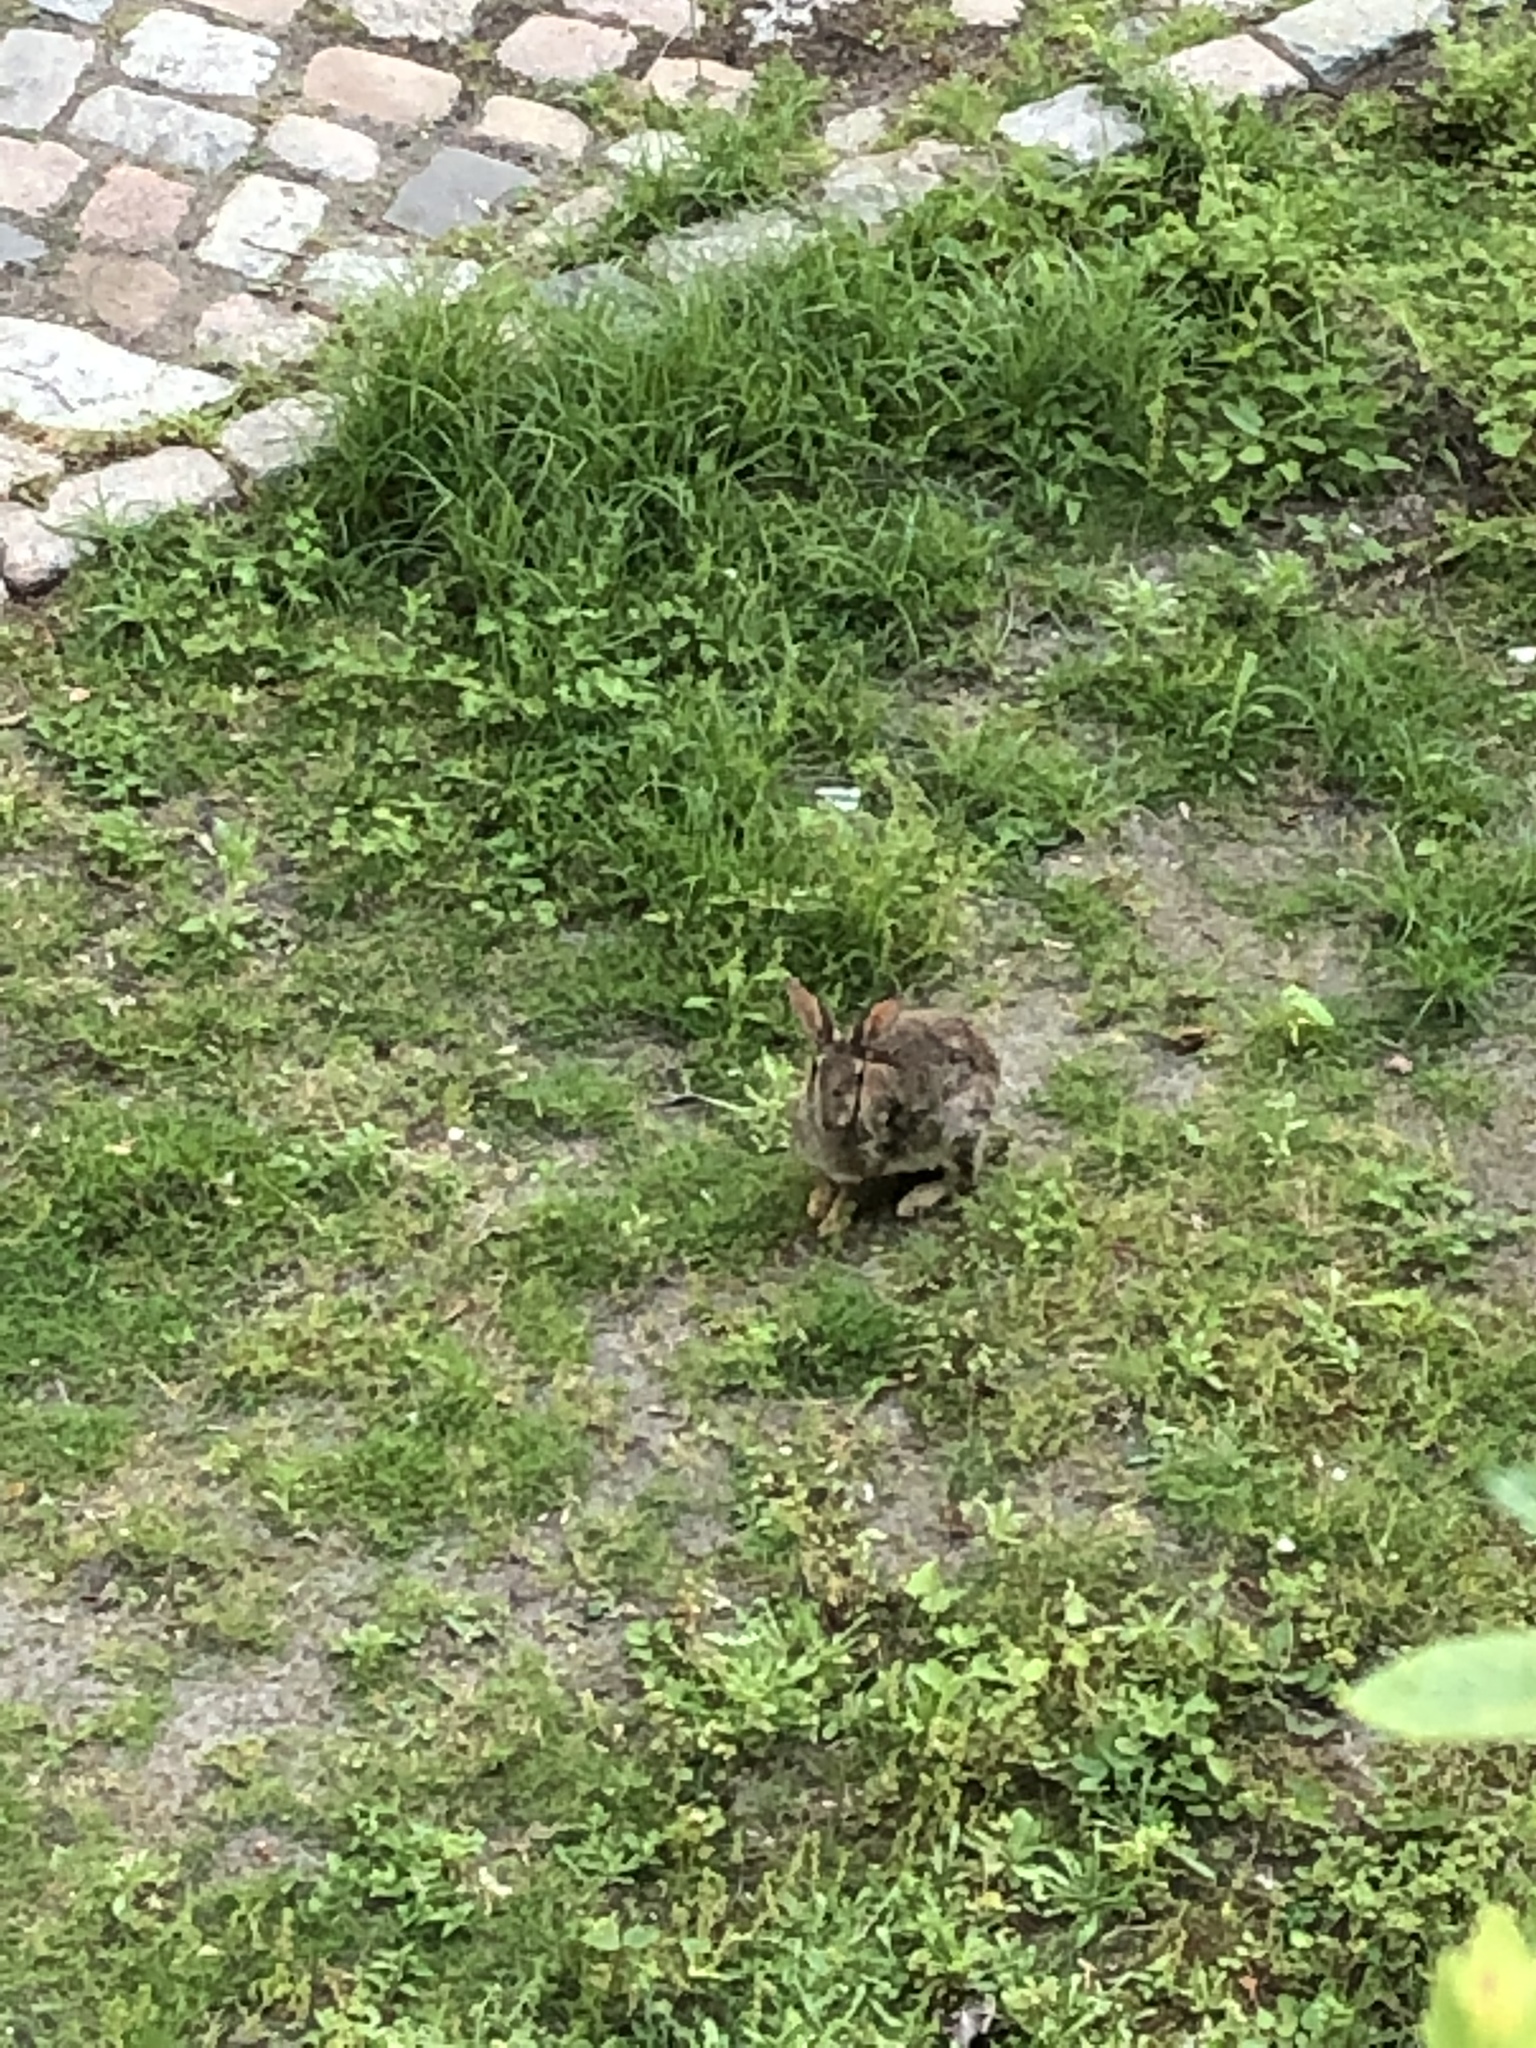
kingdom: Animalia
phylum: Chordata
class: Mammalia
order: Lagomorpha
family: Leporidae
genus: Oryctolagus
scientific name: Oryctolagus cuniculus
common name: European rabbit
